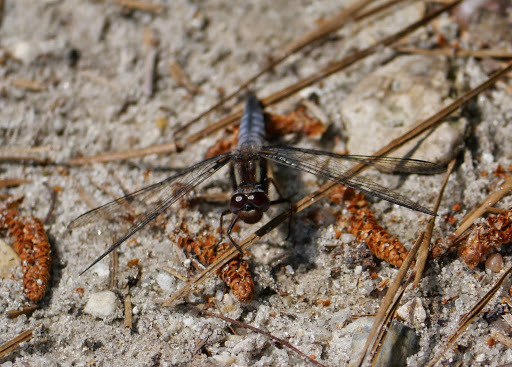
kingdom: Animalia
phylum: Arthropoda
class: Insecta
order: Odonata
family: Libellulidae
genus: Ladona
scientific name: Ladona deplanata
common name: Blue corporal
